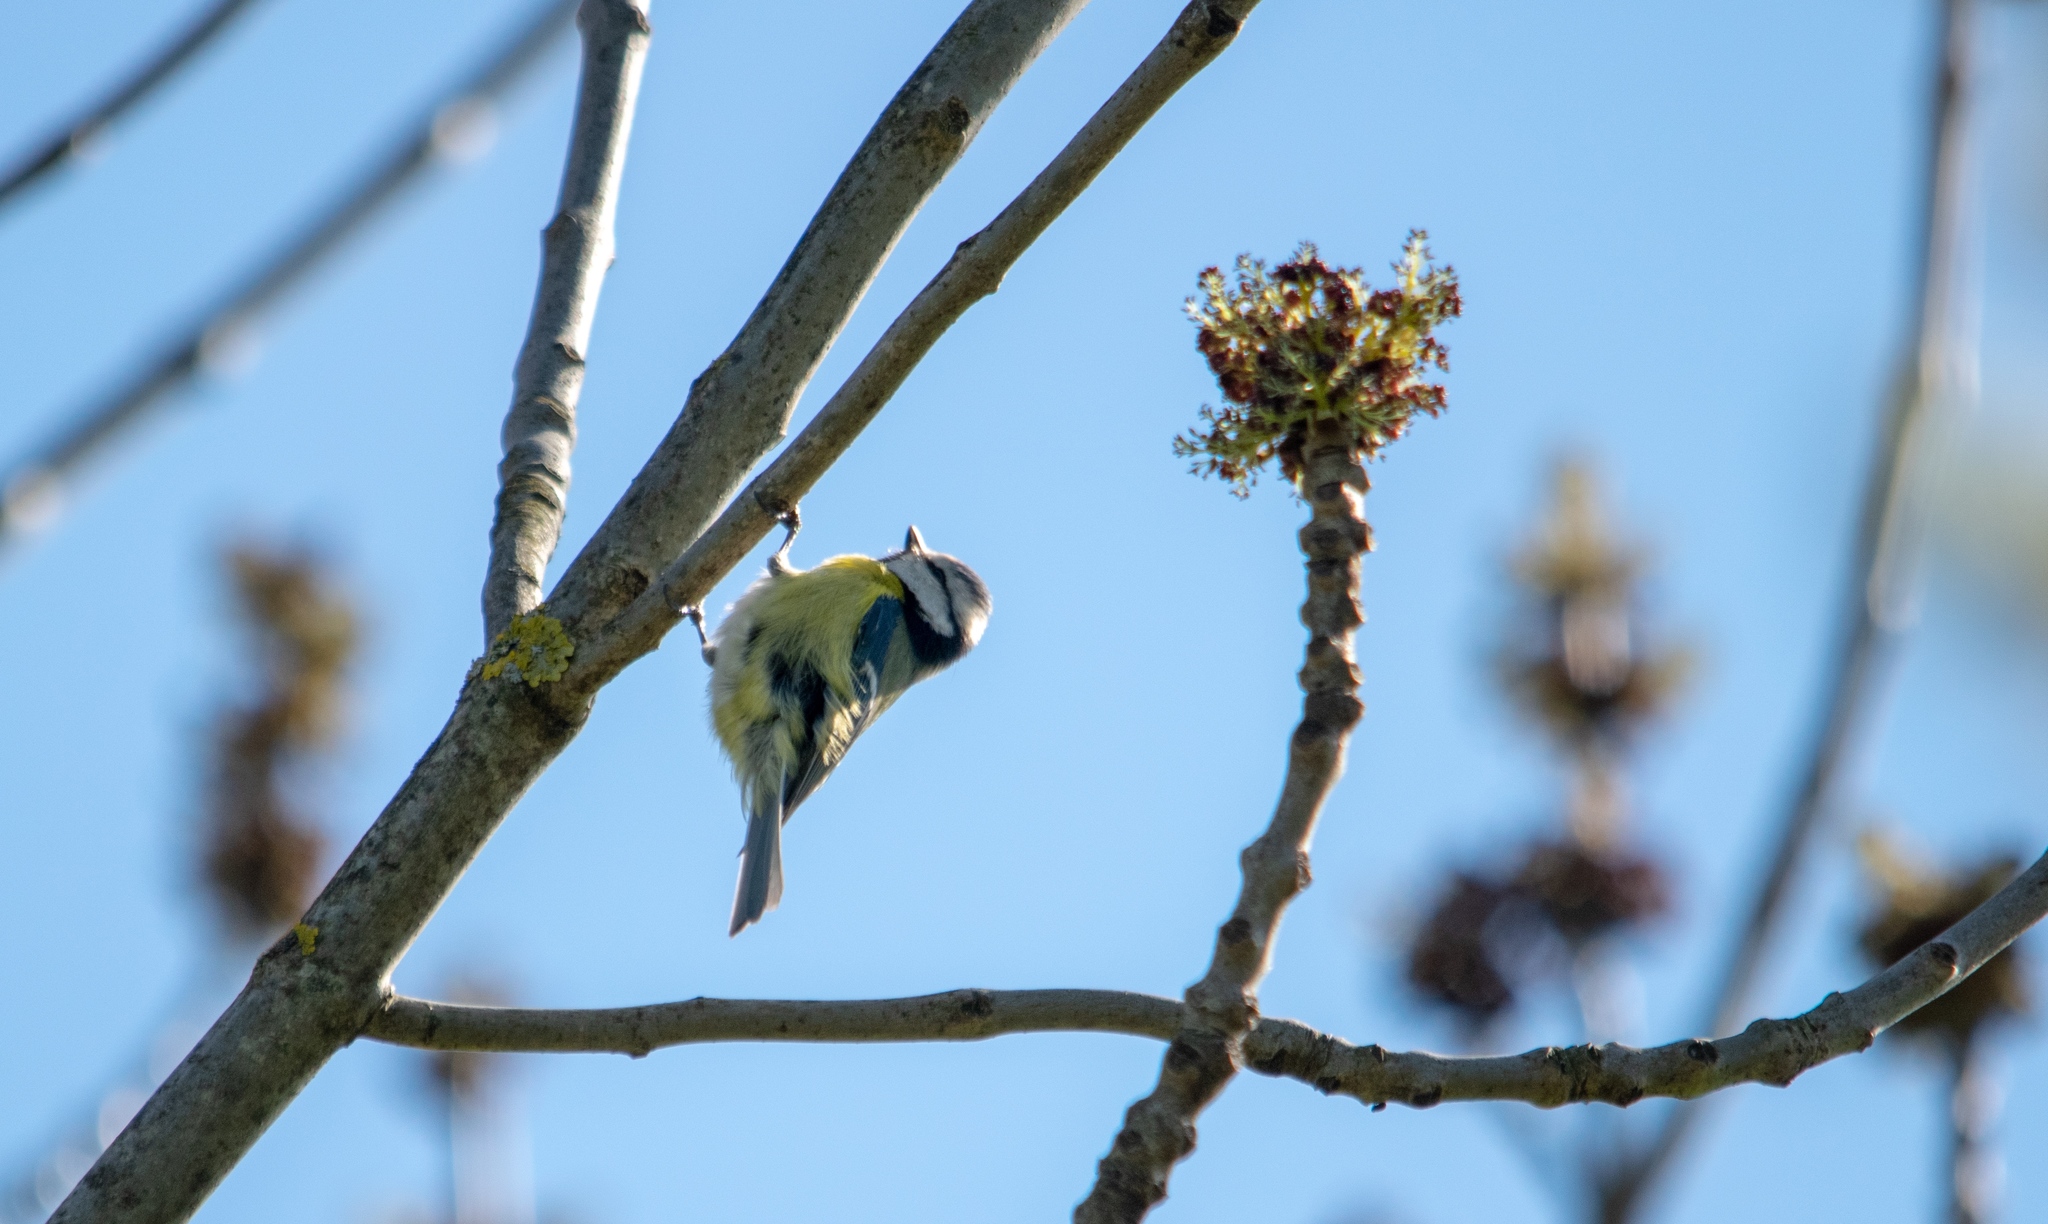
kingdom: Animalia
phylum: Chordata
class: Aves
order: Passeriformes
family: Paridae
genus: Cyanistes
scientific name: Cyanistes caeruleus
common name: Eurasian blue tit
